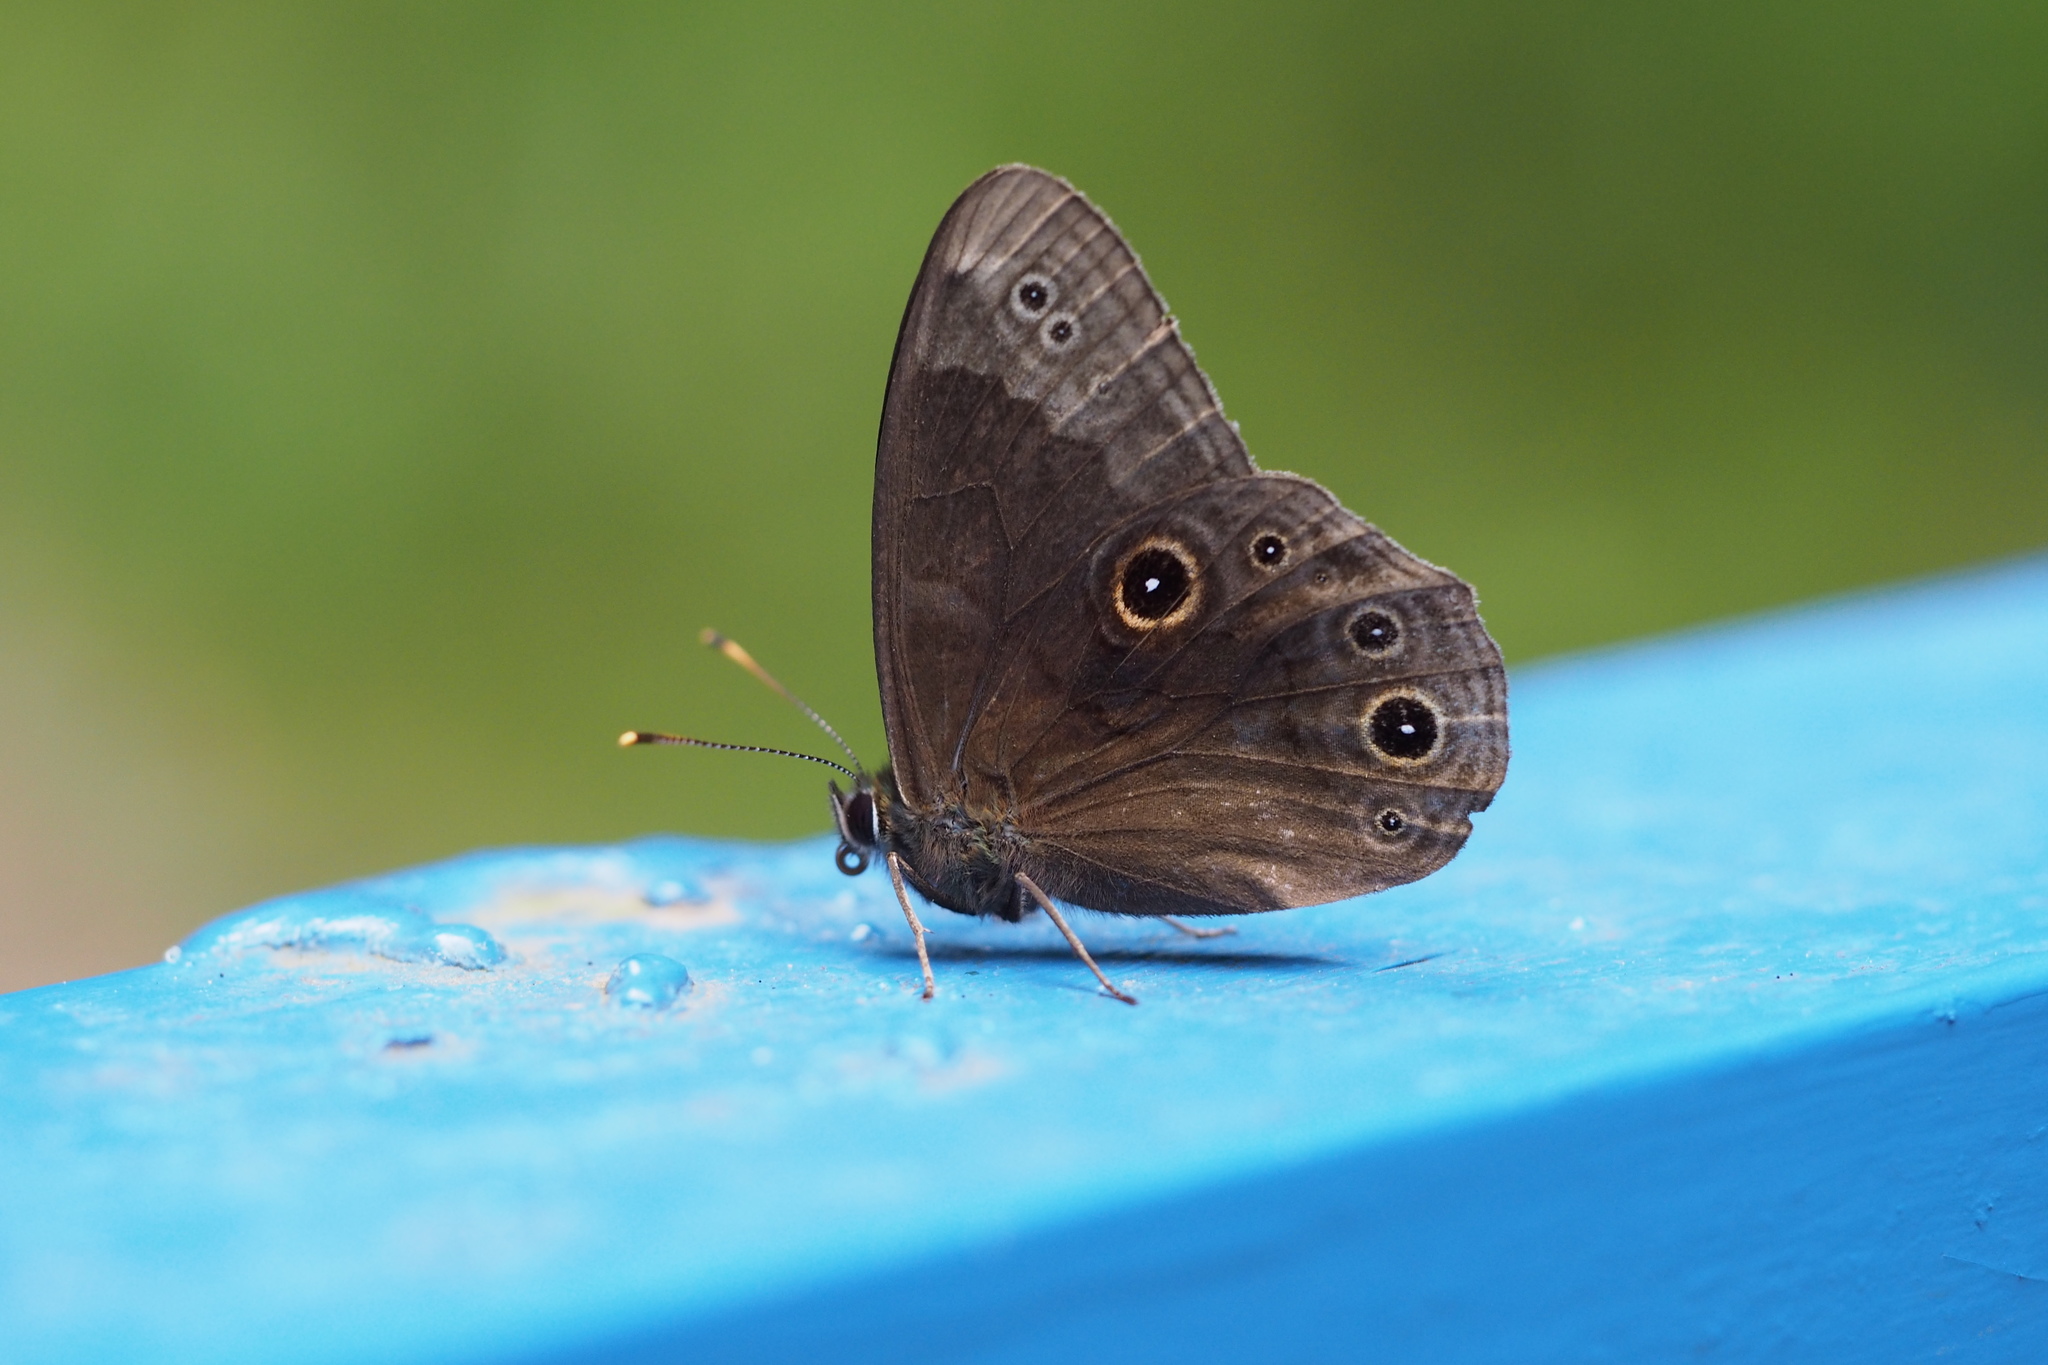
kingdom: Animalia
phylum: Arthropoda
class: Insecta
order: Lepidoptera
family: Nymphalidae
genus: Lethe
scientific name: Lethe diana
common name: Diana treebrown
